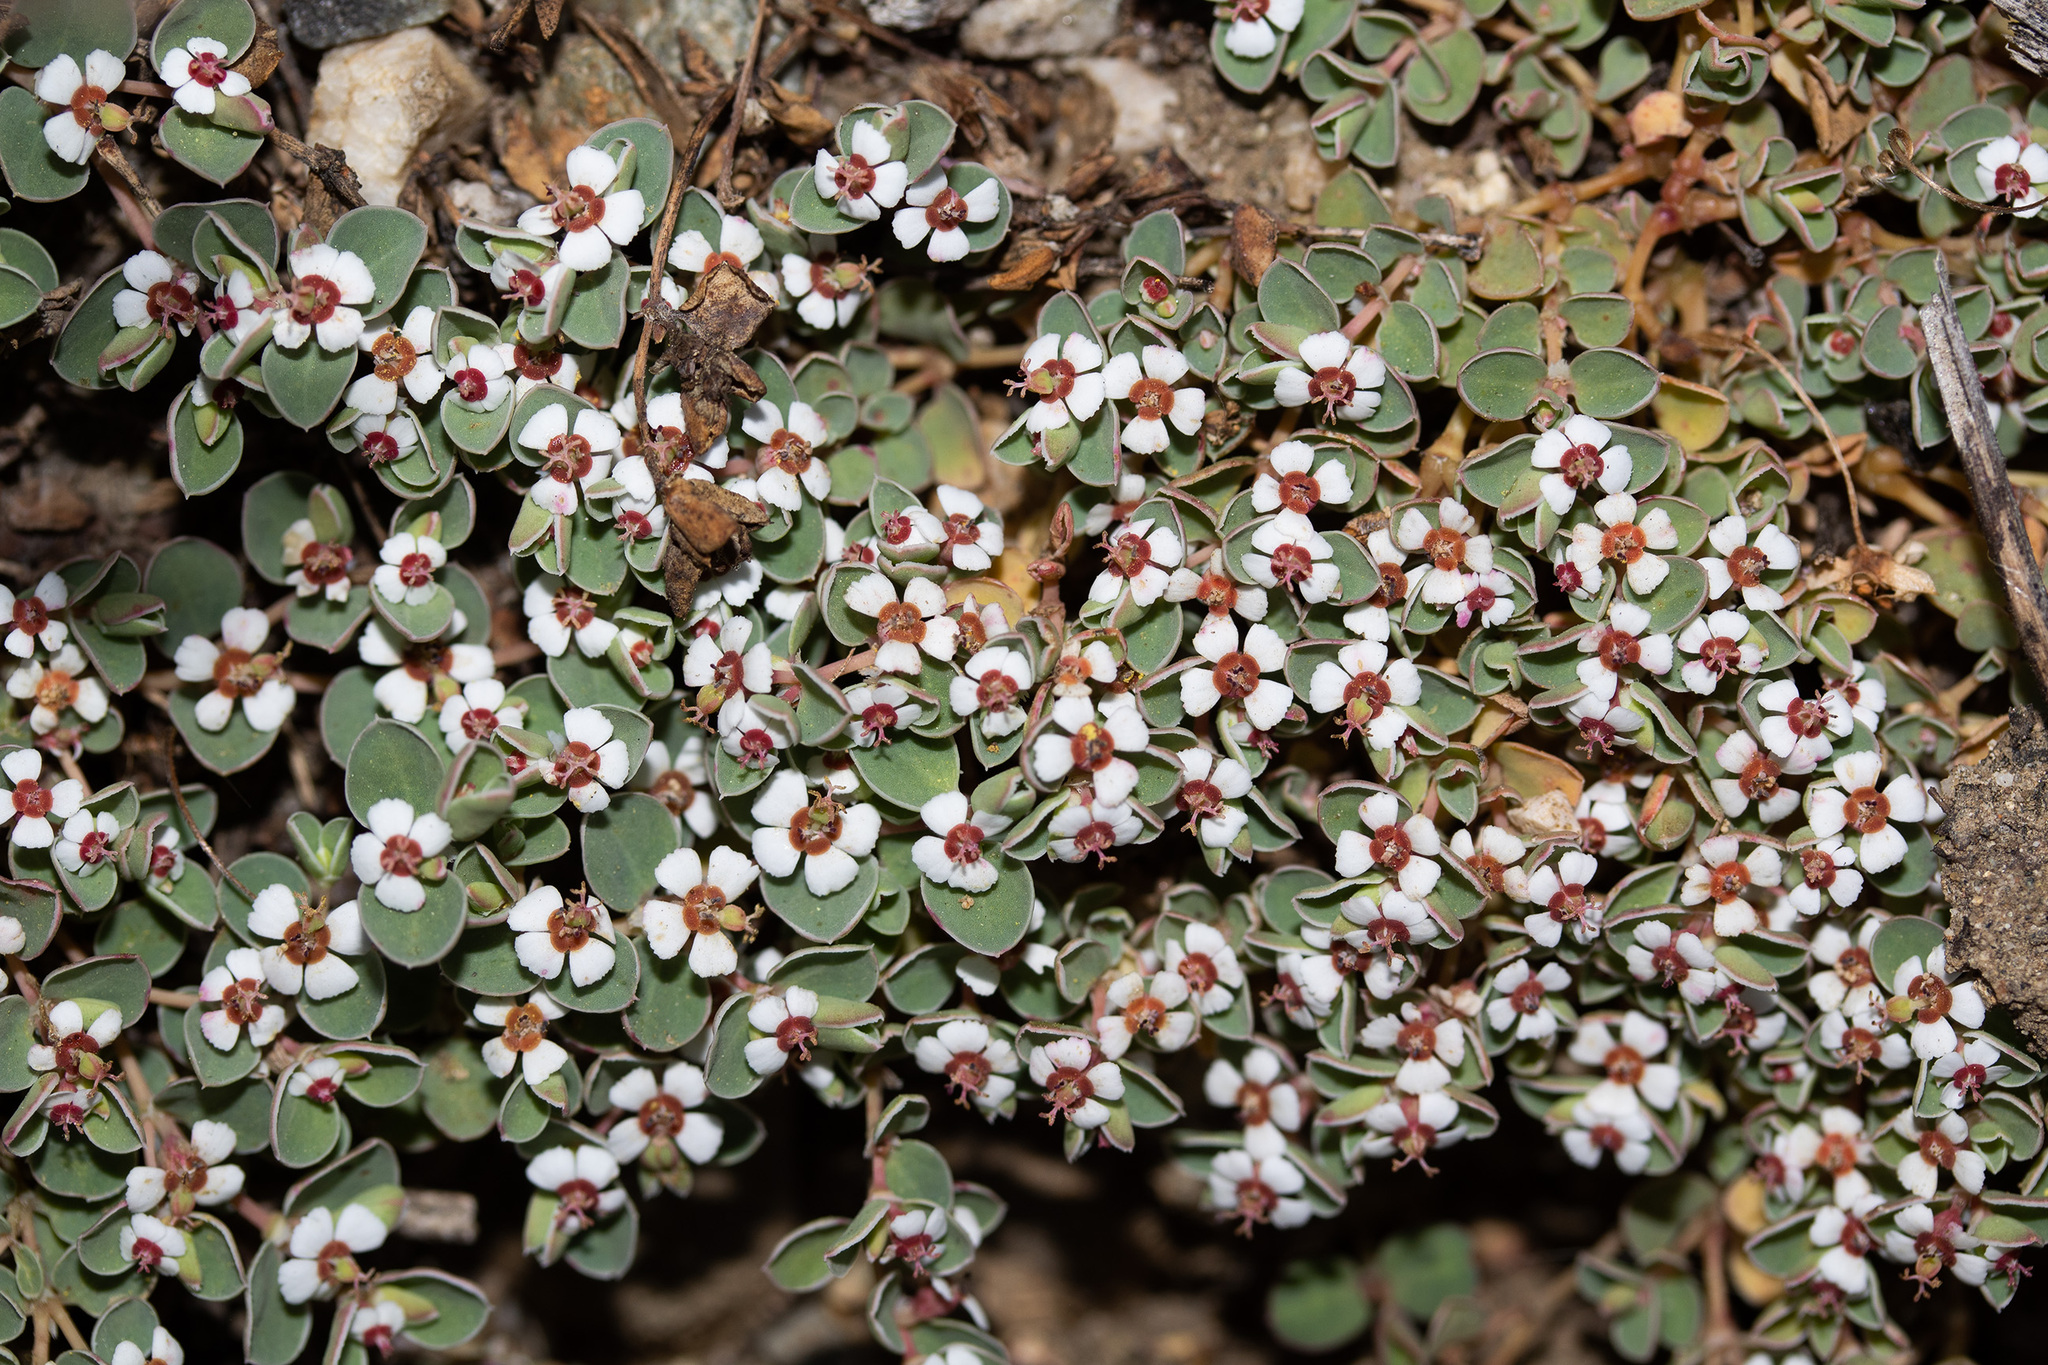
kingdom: Plantae
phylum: Tracheophyta
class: Magnoliopsida
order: Malpighiales
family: Euphorbiaceae
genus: Euphorbia
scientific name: Euphorbia albomarginata
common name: Whitemargin sandmat
